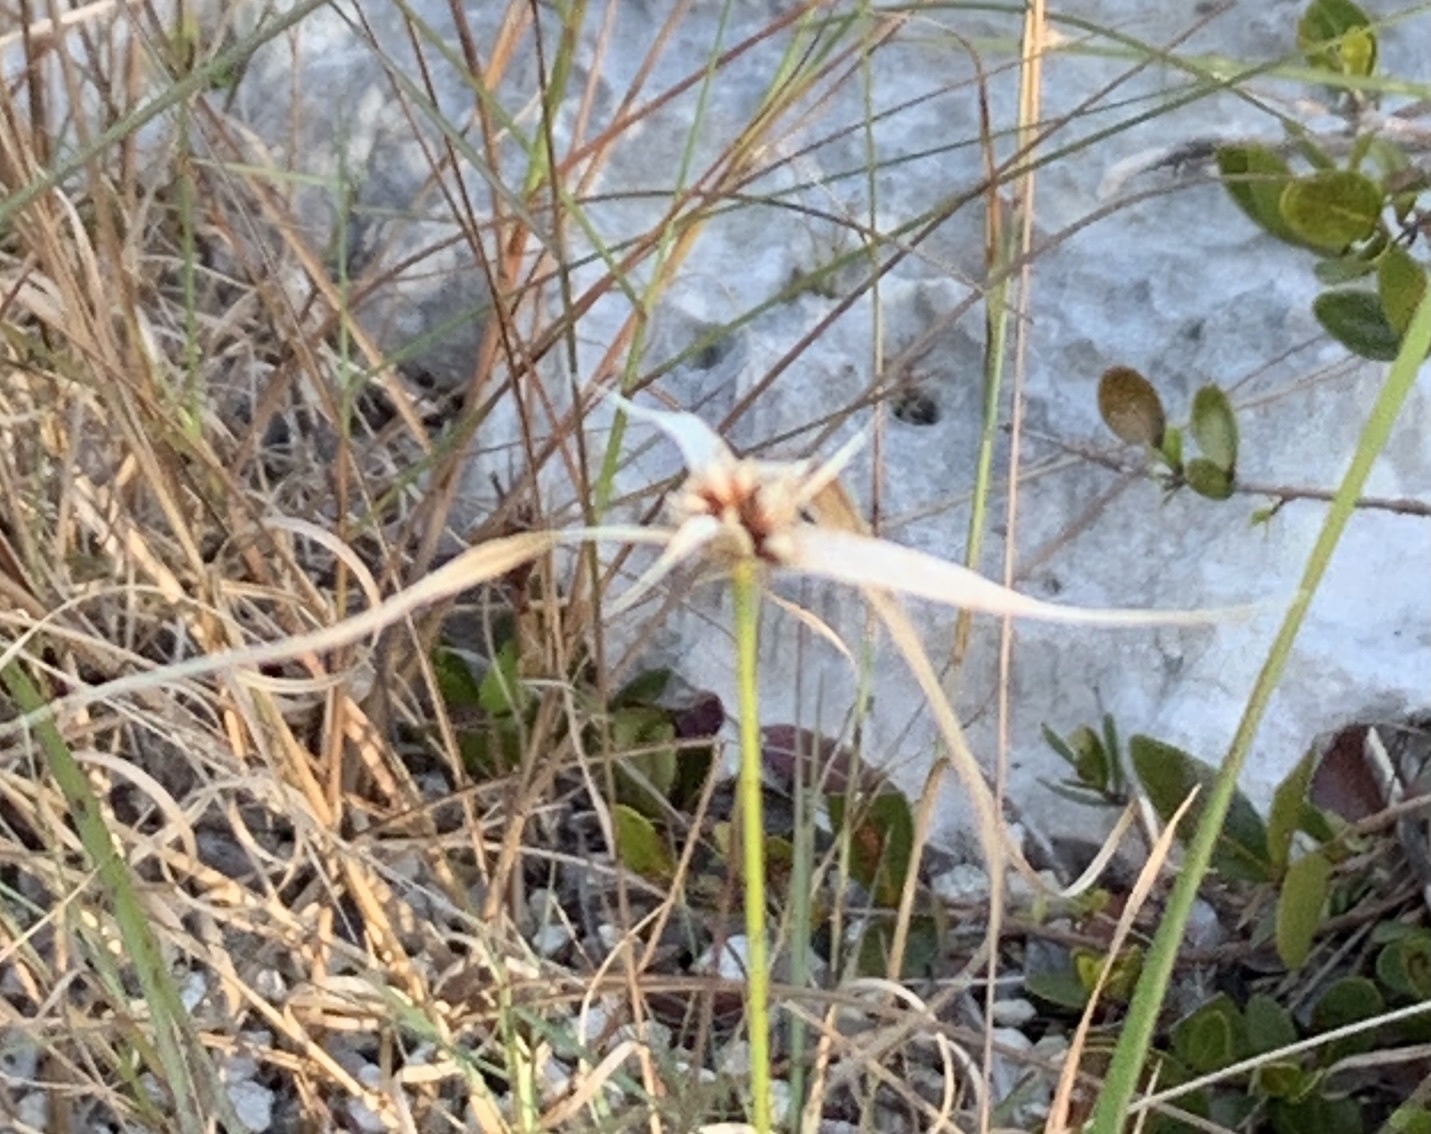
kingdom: Plantae
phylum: Tracheophyta
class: Liliopsida
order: Poales
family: Cyperaceae
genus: Rhynchospora
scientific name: Rhynchospora colorata
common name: Star sedge
